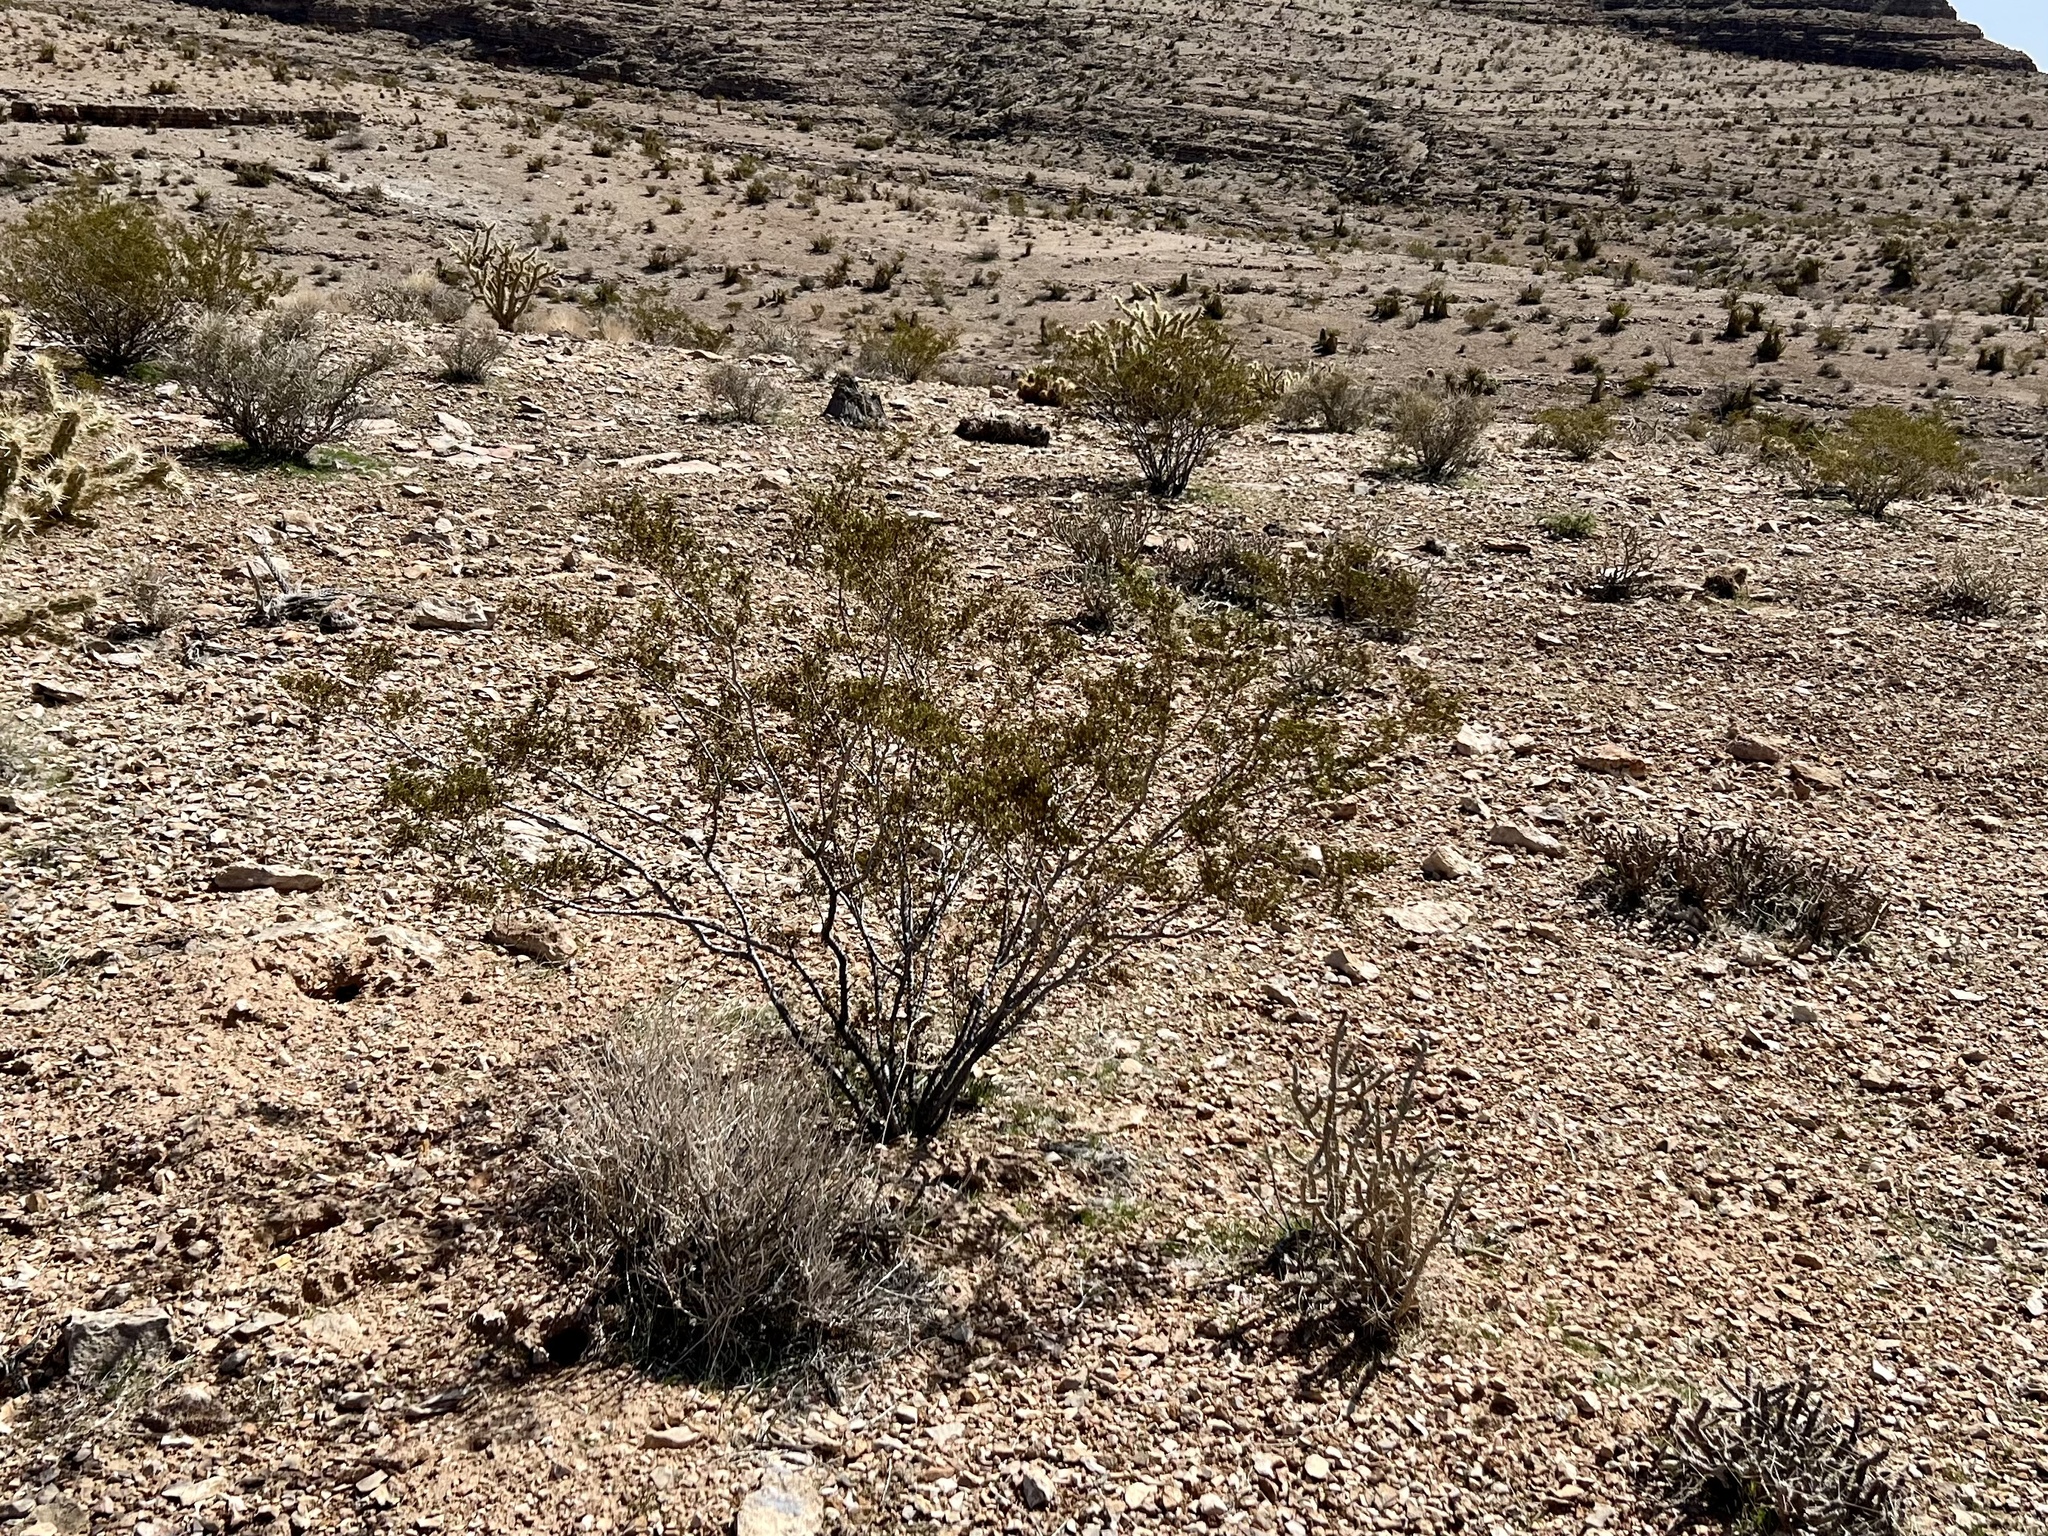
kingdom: Plantae
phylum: Tracheophyta
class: Magnoliopsida
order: Zygophyllales
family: Zygophyllaceae
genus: Larrea
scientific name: Larrea tridentata
